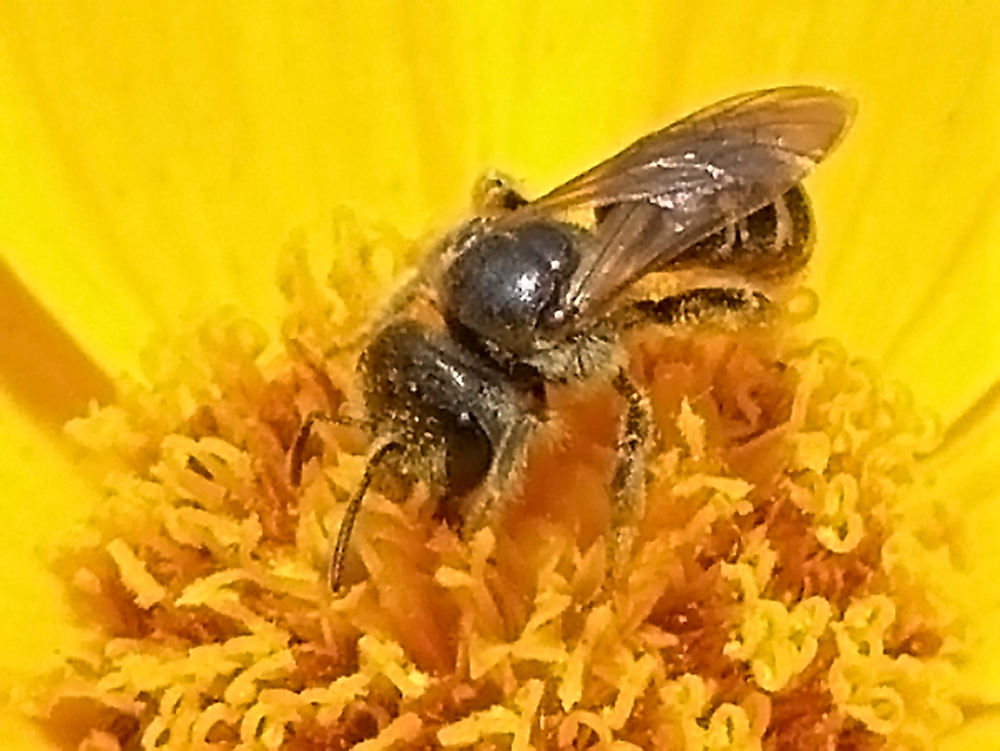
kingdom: Animalia
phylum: Arthropoda
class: Insecta
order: Hymenoptera
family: Halictidae
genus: Halictus
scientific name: Halictus ligatus
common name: Ligated furrow bee
